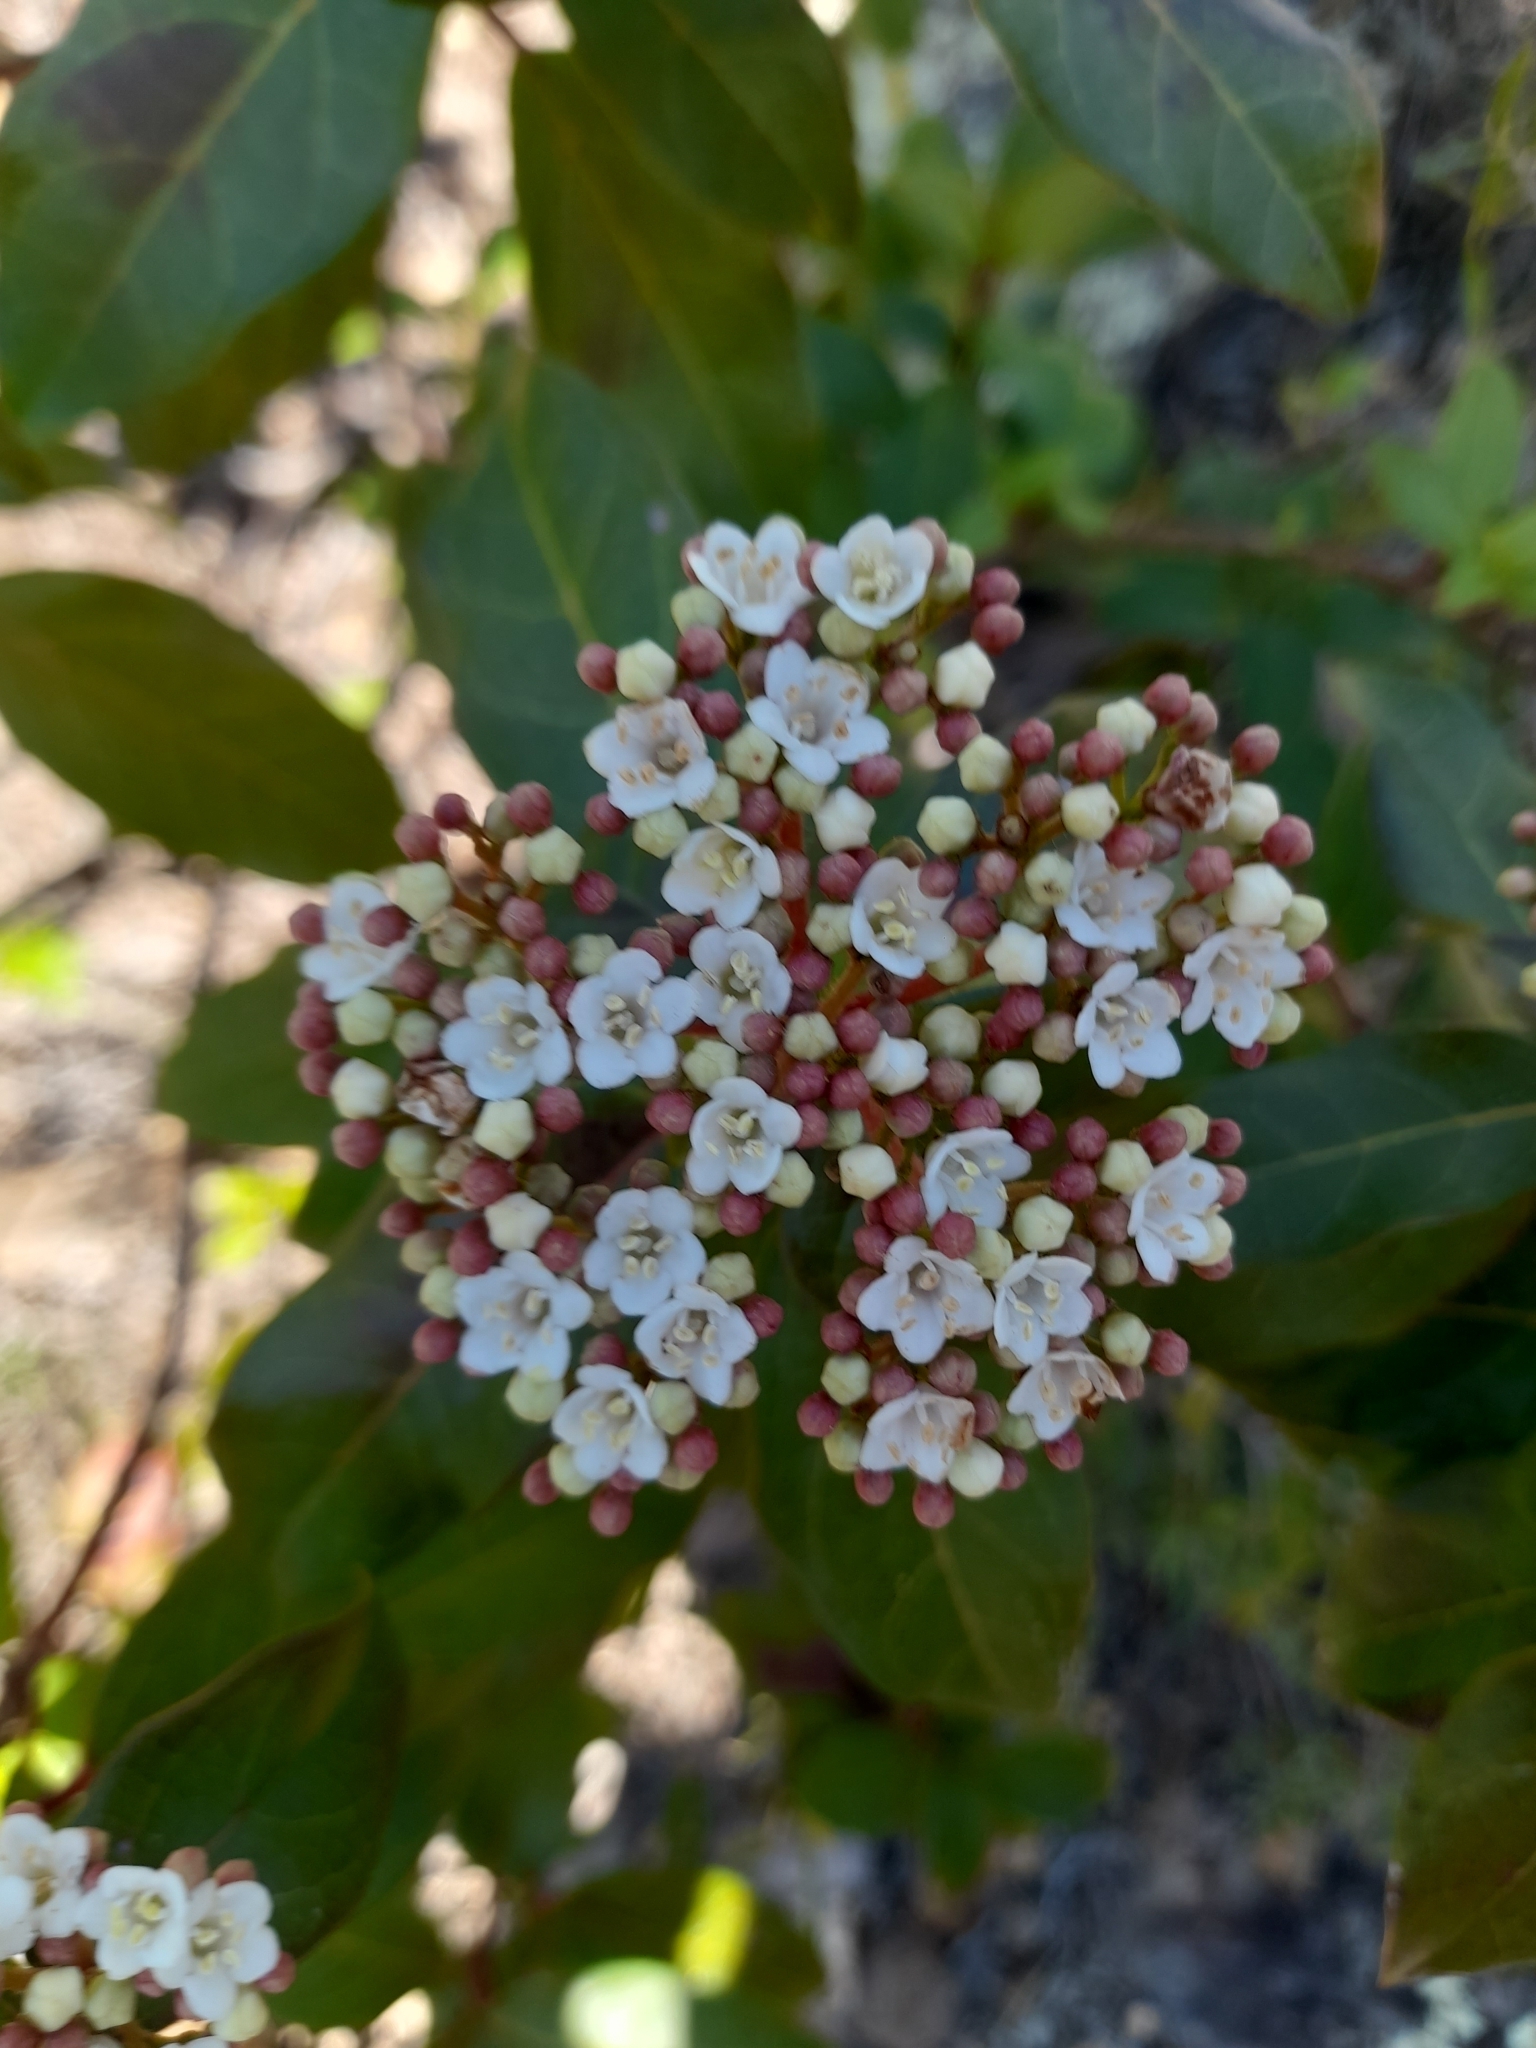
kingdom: Plantae
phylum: Tracheophyta
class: Magnoliopsida
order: Dipsacales
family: Viburnaceae
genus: Viburnum
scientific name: Viburnum tinus
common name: Laurustinus
